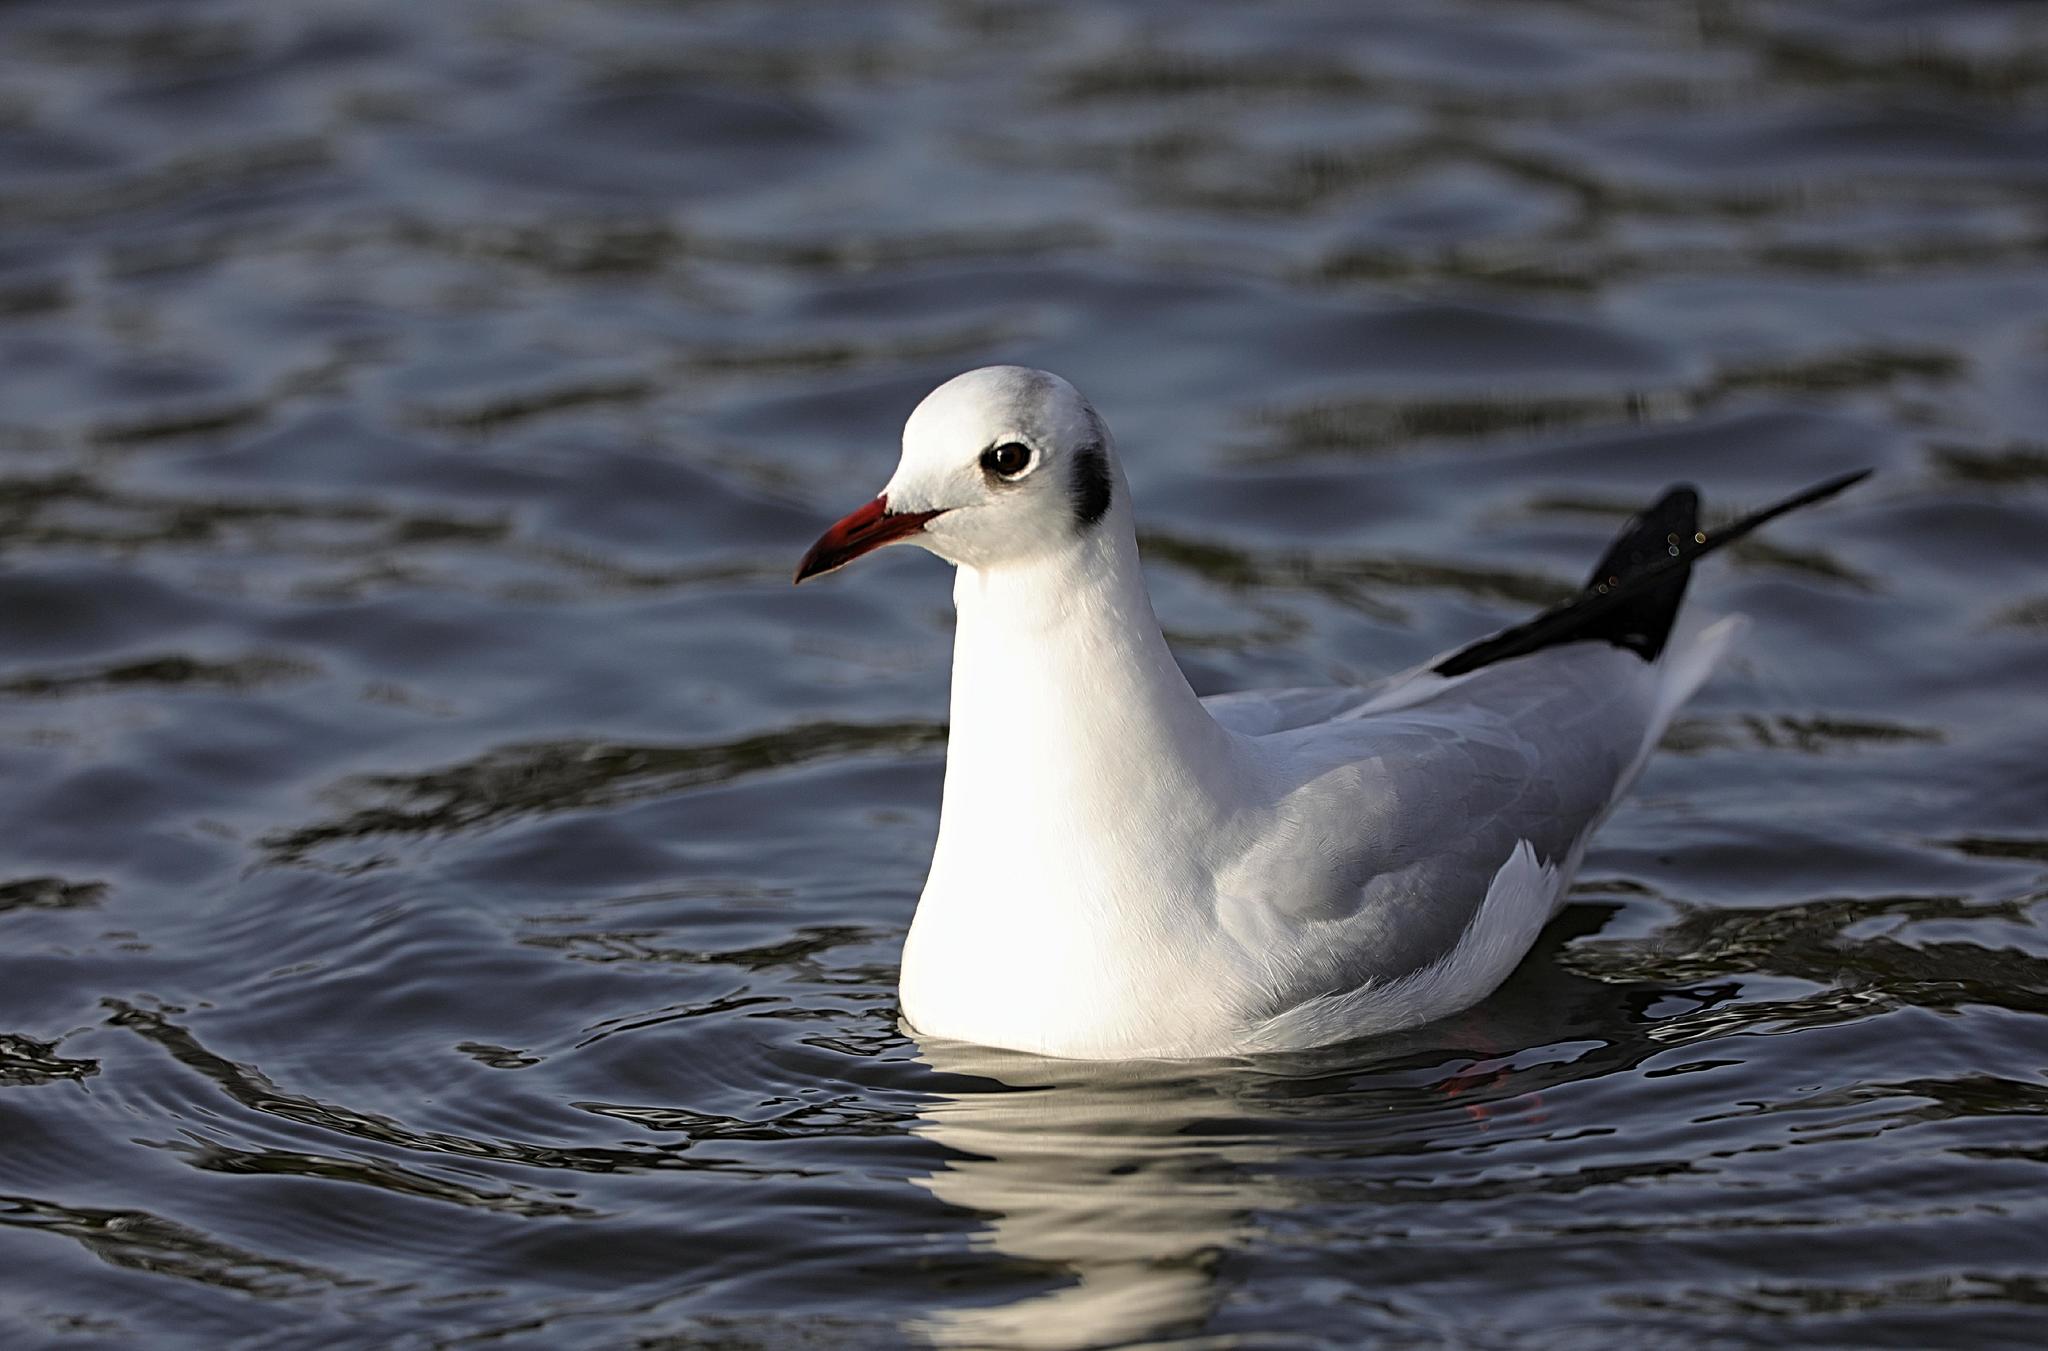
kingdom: Animalia
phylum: Chordata
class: Aves
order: Charadriiformes
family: Laridae
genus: Chroicocephalus
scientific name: Chroicocephalus ridibundus
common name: Black-headed gull
